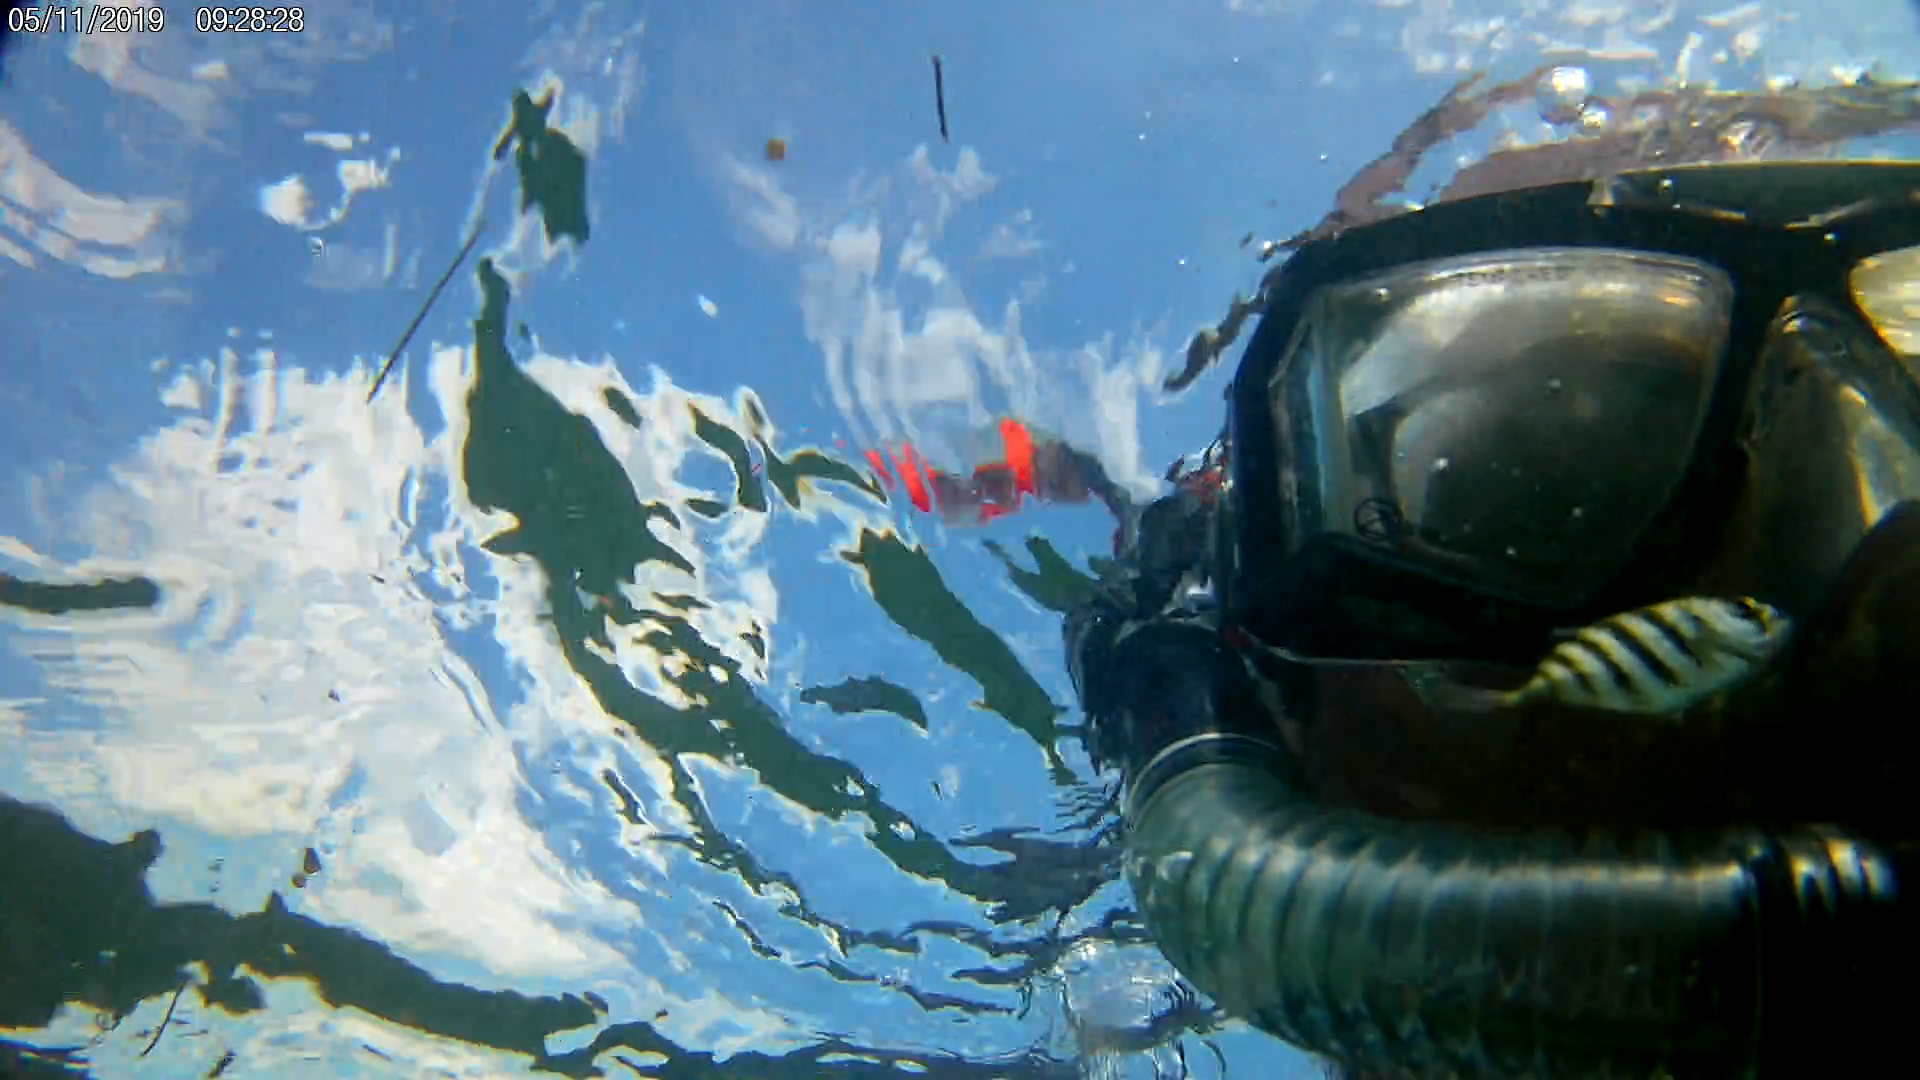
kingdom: Animalia
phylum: Chordata
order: Perciformes
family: Carangidae
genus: Caranx
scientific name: Caranx hippos
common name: Common jack
